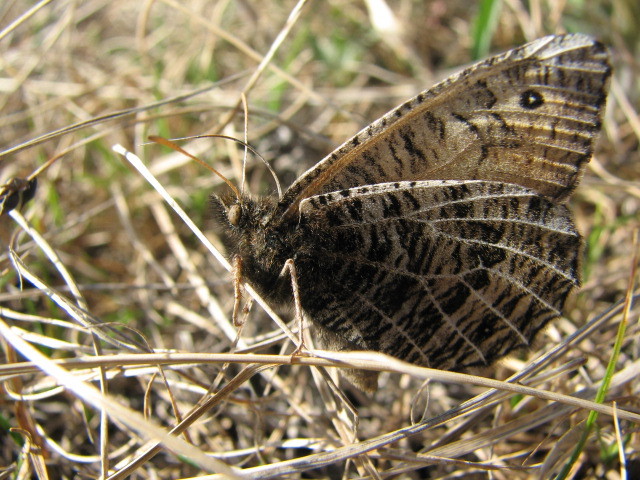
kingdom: Animalia
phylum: Arthropoda
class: Insecta
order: Lepidoptera
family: Nymphalidae
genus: Oeneis
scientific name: Oeneis alberta
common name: Alberta arctic
